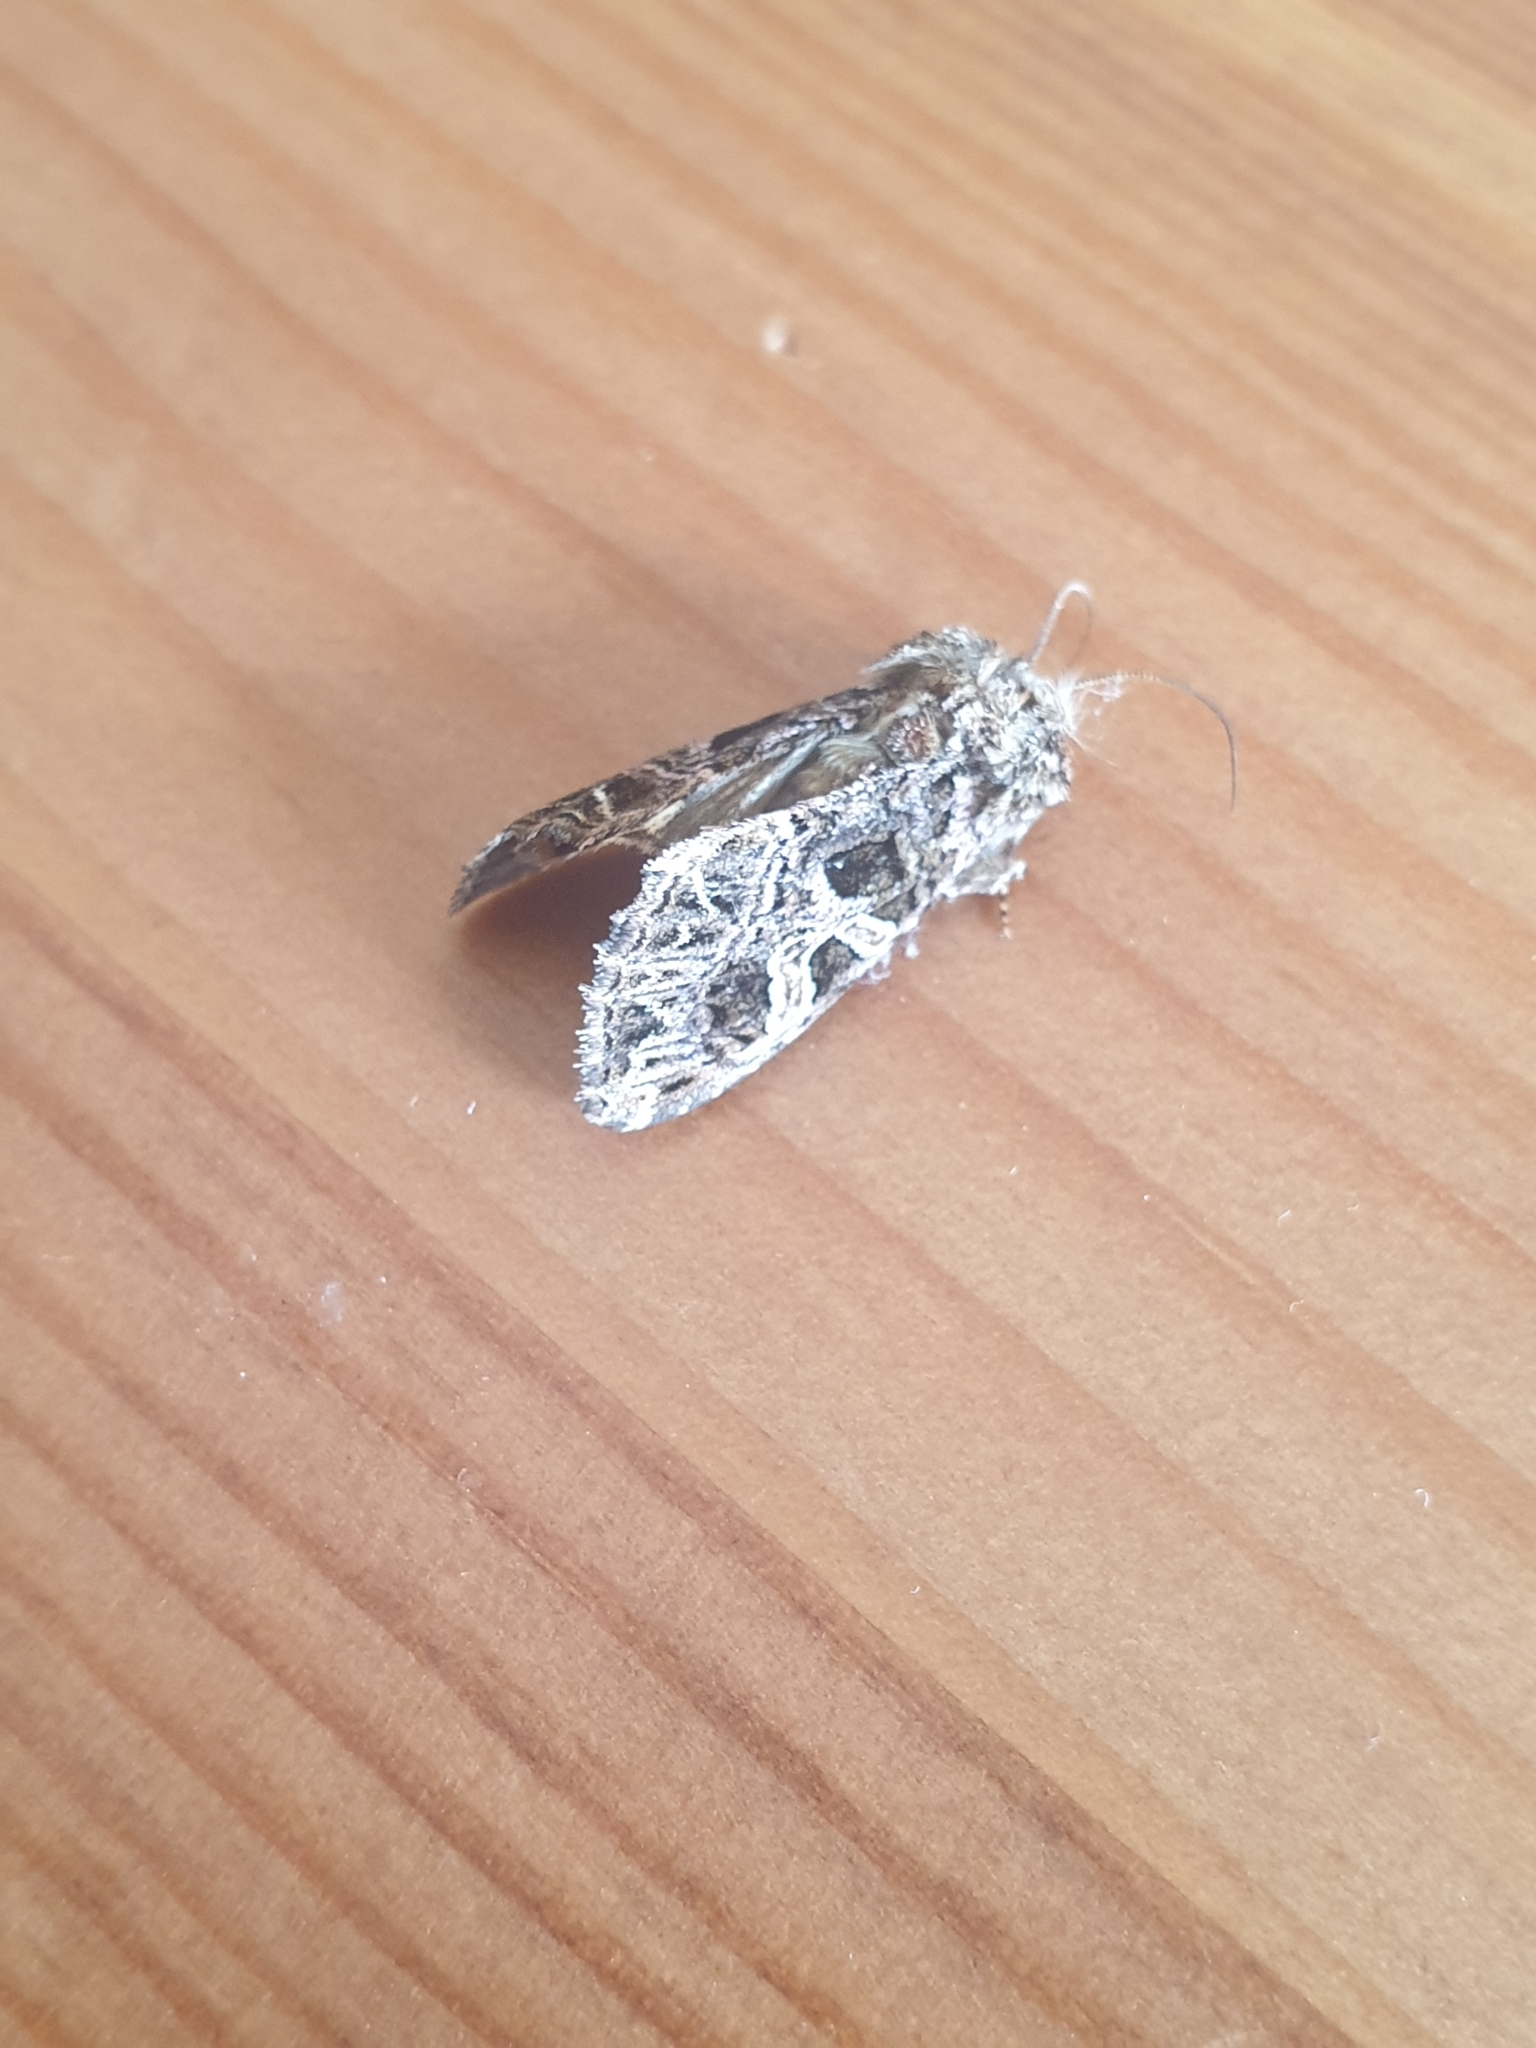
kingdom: Animalia
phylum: Arthropoda
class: Insecta
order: Lepidoptera
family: Noctuidae
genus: Sideridis
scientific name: Sideridis rivularis
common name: Campion
